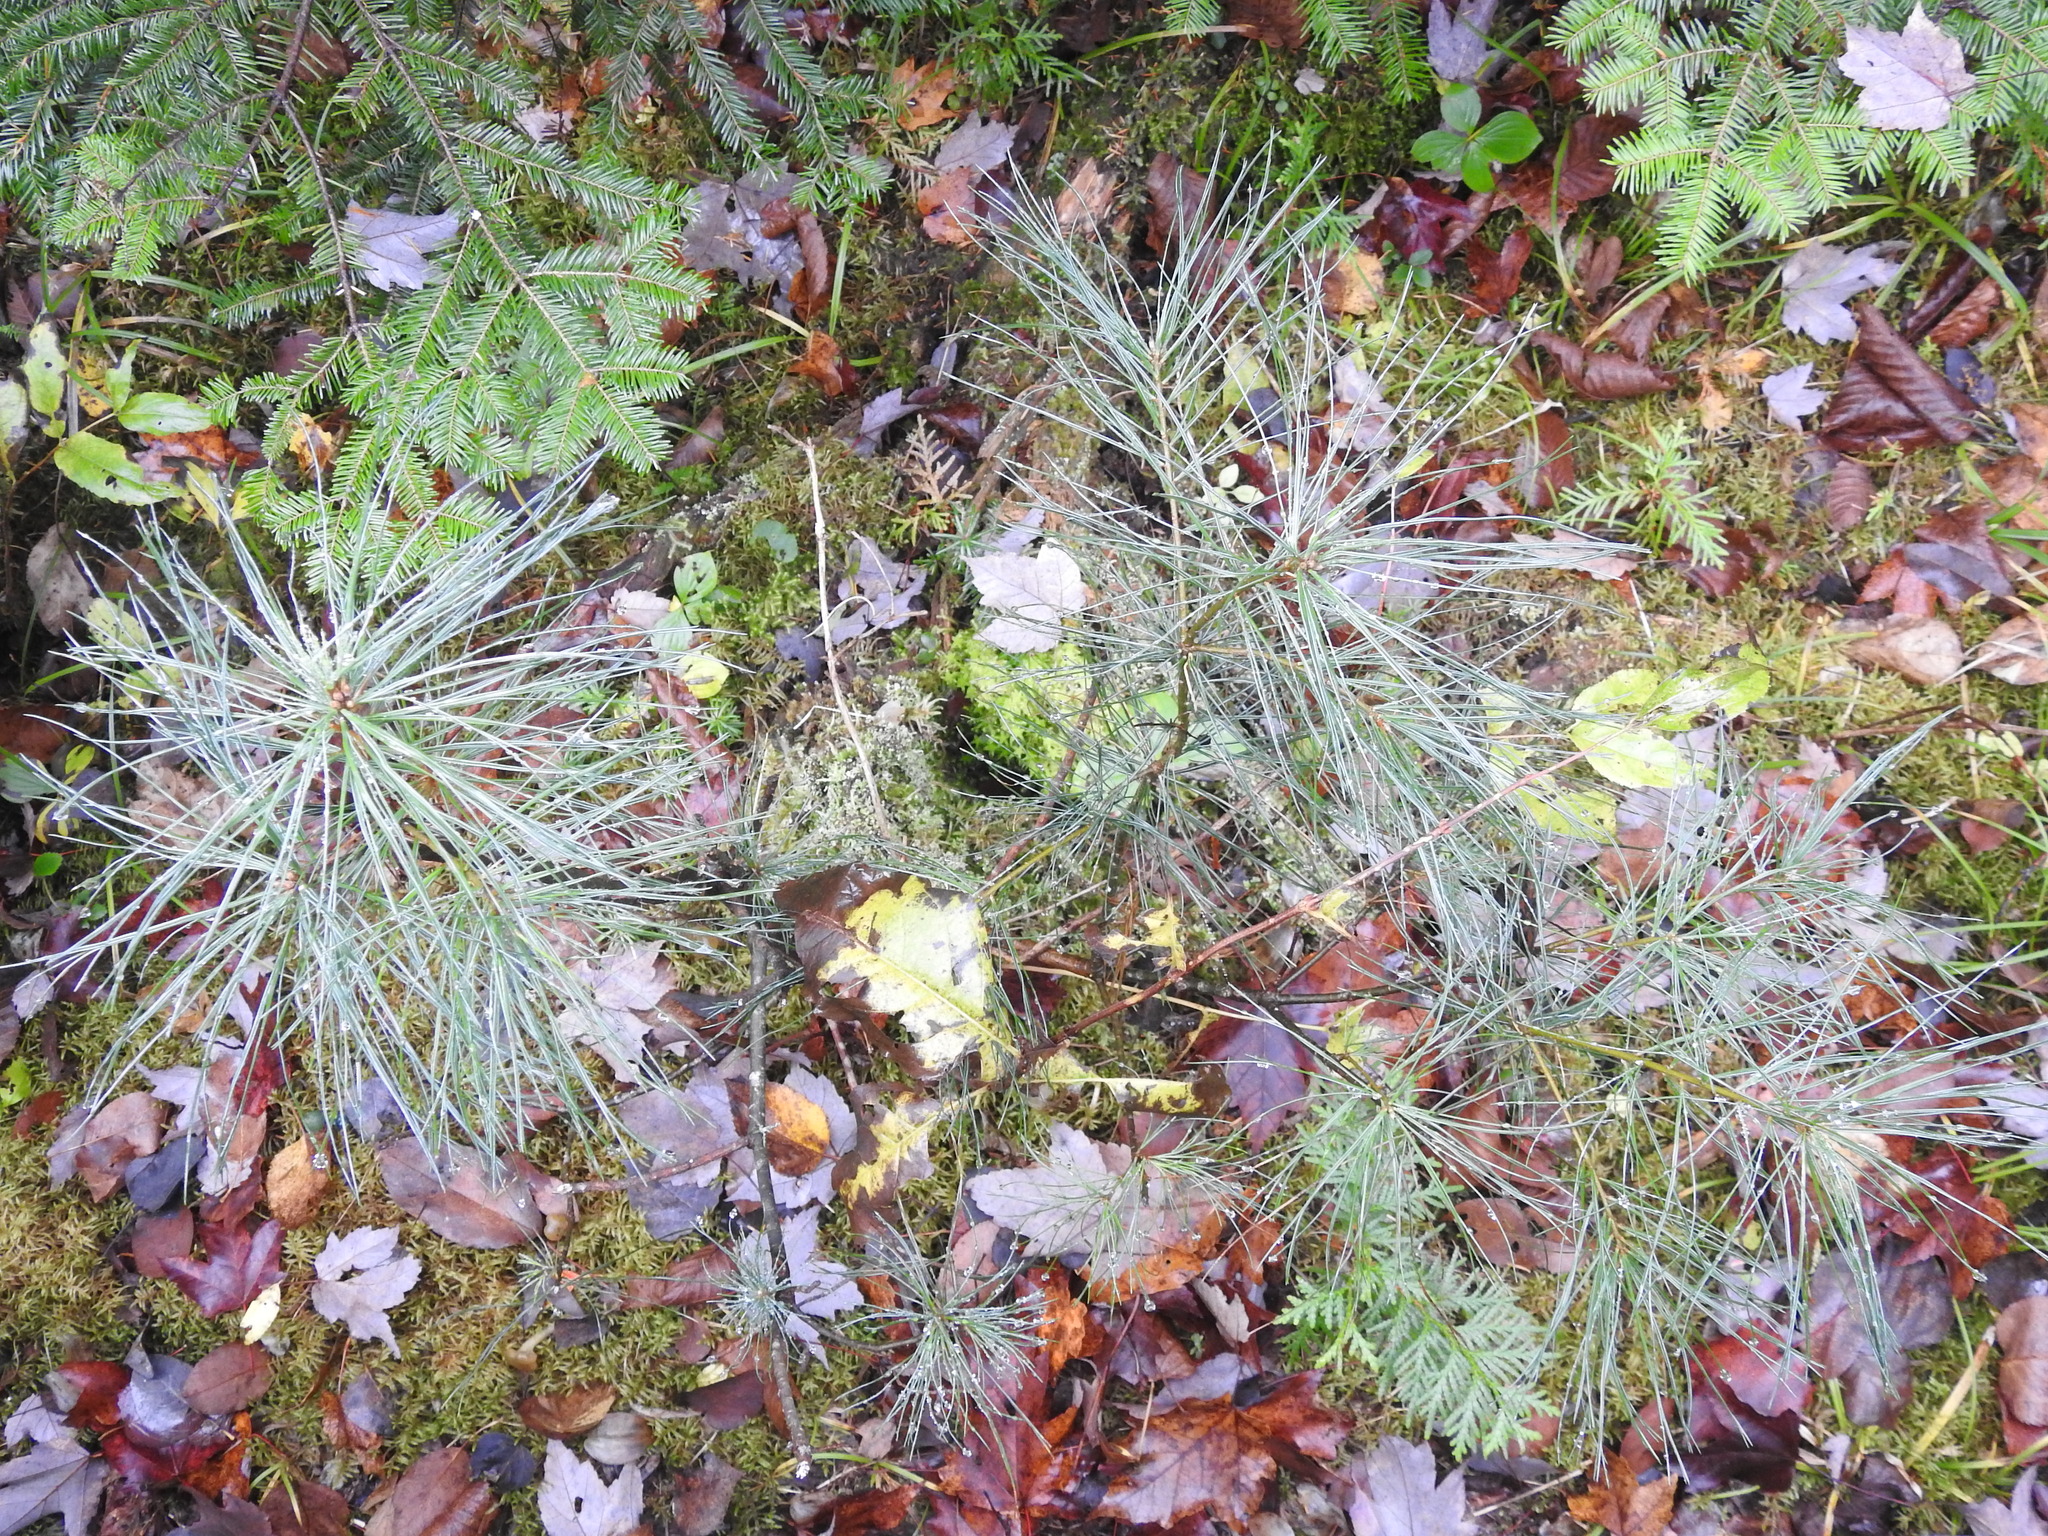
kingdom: Plantae
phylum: Tracheophyta
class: Pinopsida
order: Pinales
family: Pinaceae
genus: Pinus
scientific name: Pinus strobus
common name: Weymouth pine
